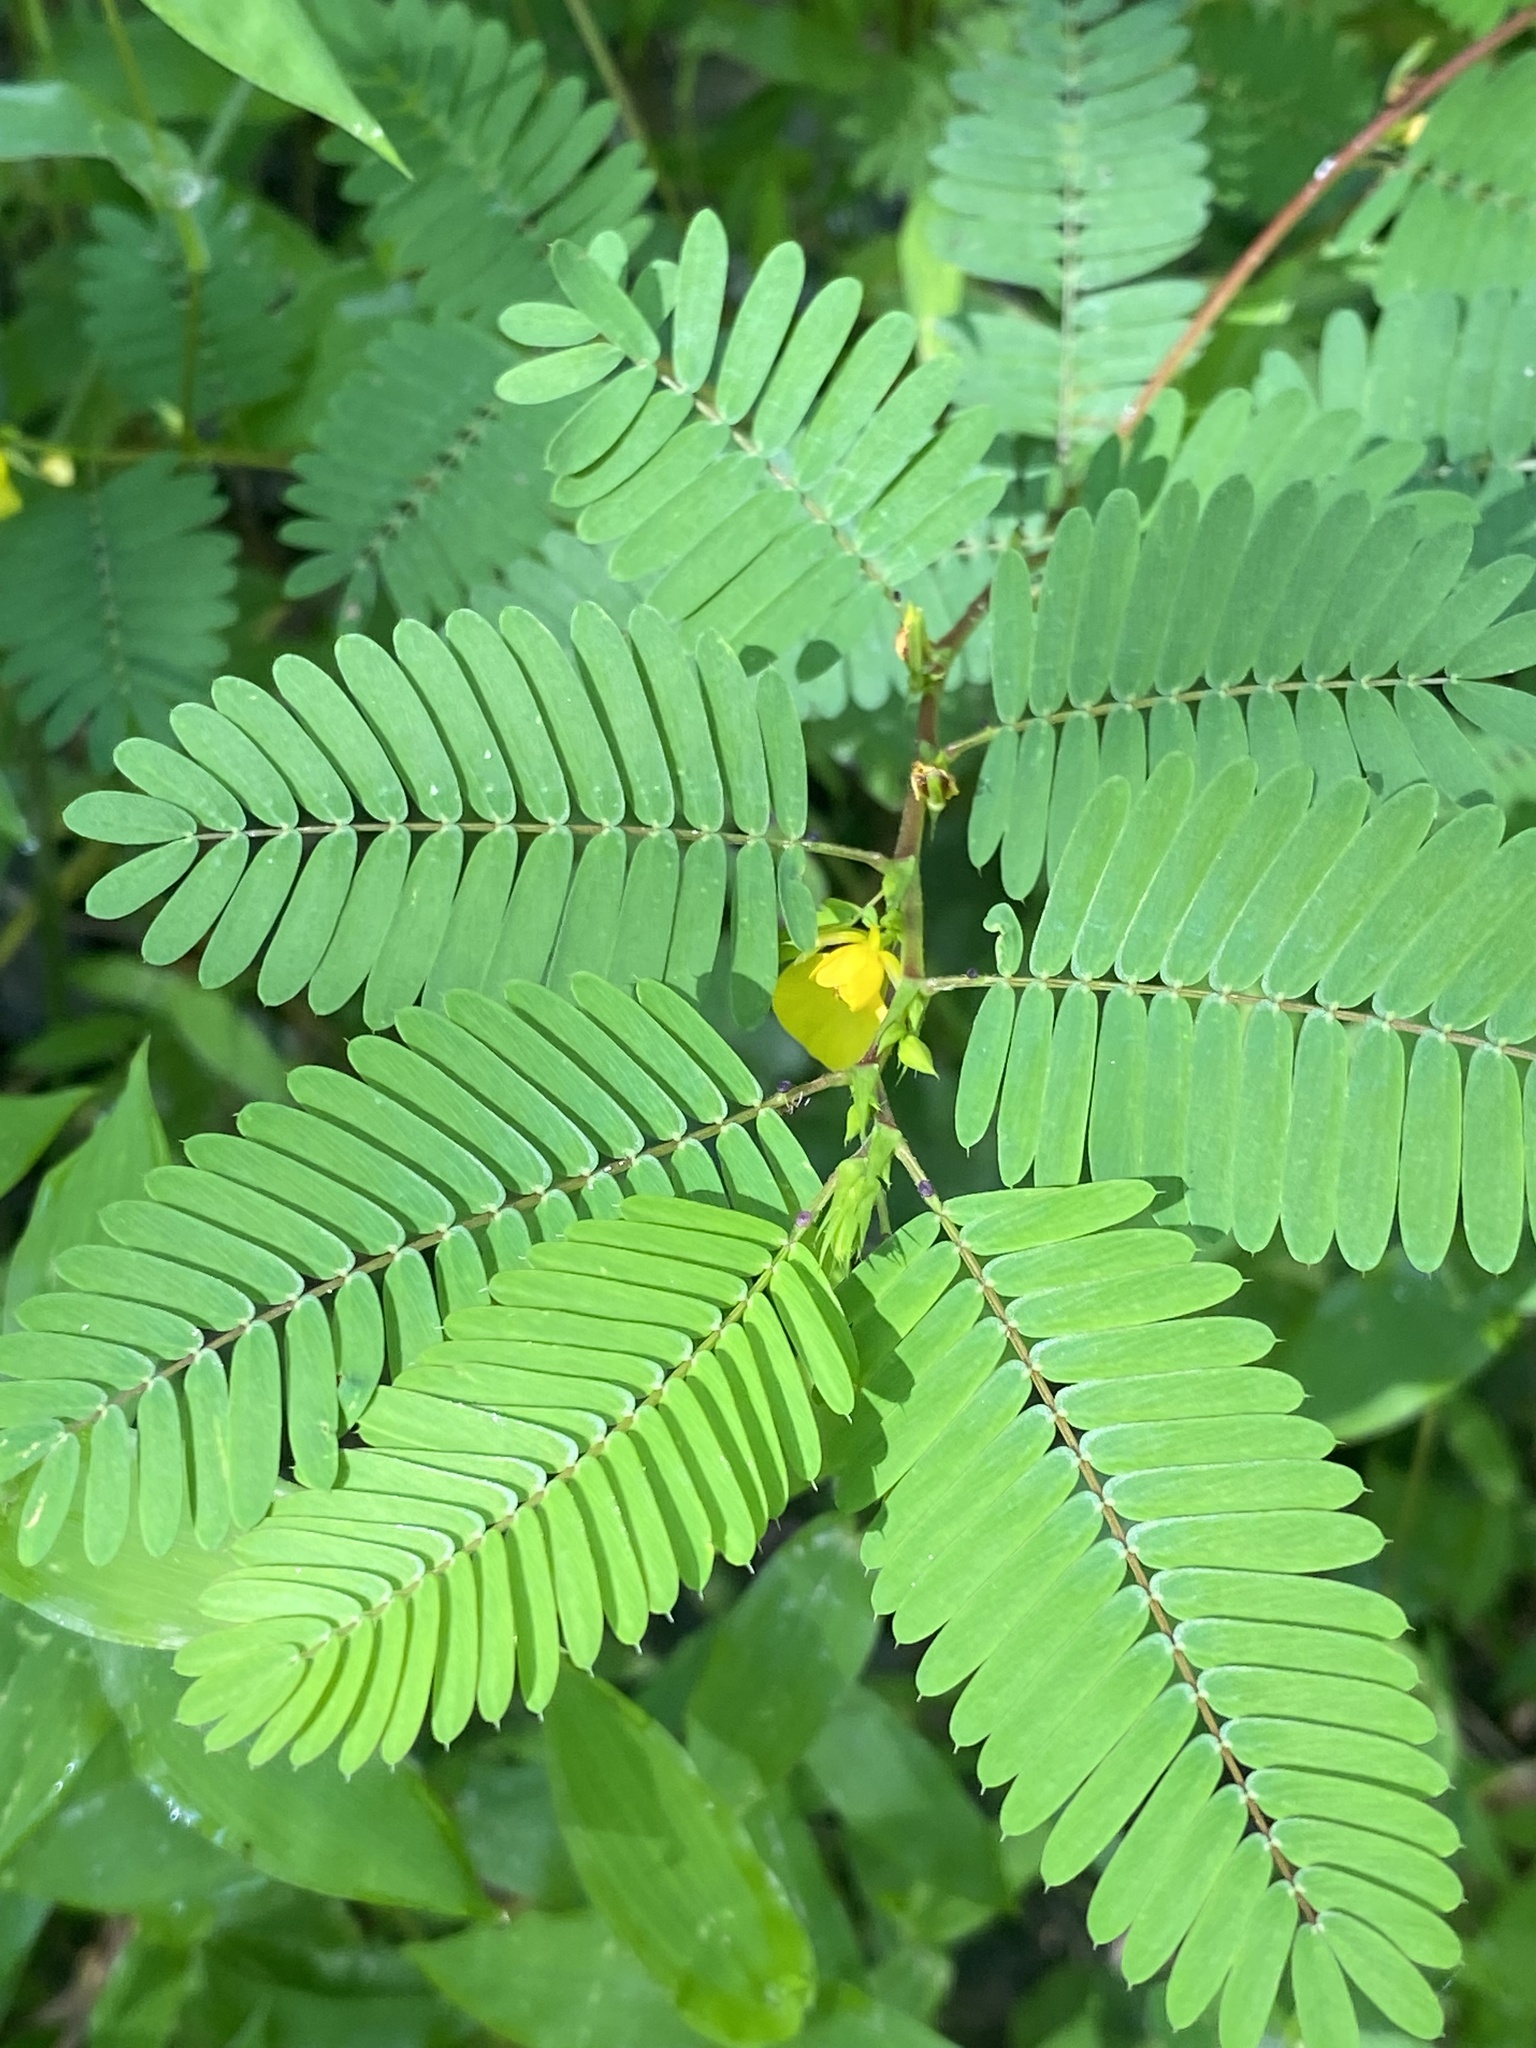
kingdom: Plantae
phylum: Tracheophyta
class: Magnoliopsida
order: Fabales
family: Fabaceae
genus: Chamaecrista
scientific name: Chamaecrista nictitans
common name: Sensitive cassia
